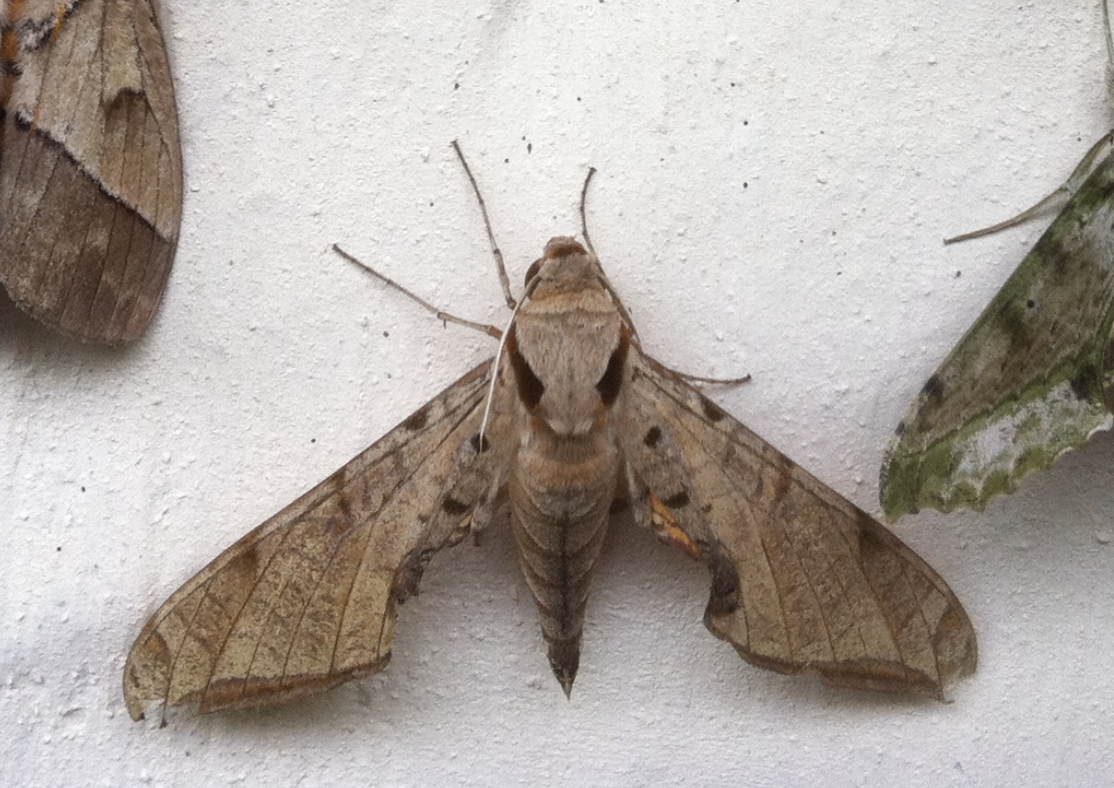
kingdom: Animalia
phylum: Arthropoda
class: Insecta
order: Lepidoptera
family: Sphingidae
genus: Protambulyx
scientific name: Protambulyx strigilis
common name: Streaked sphinx
